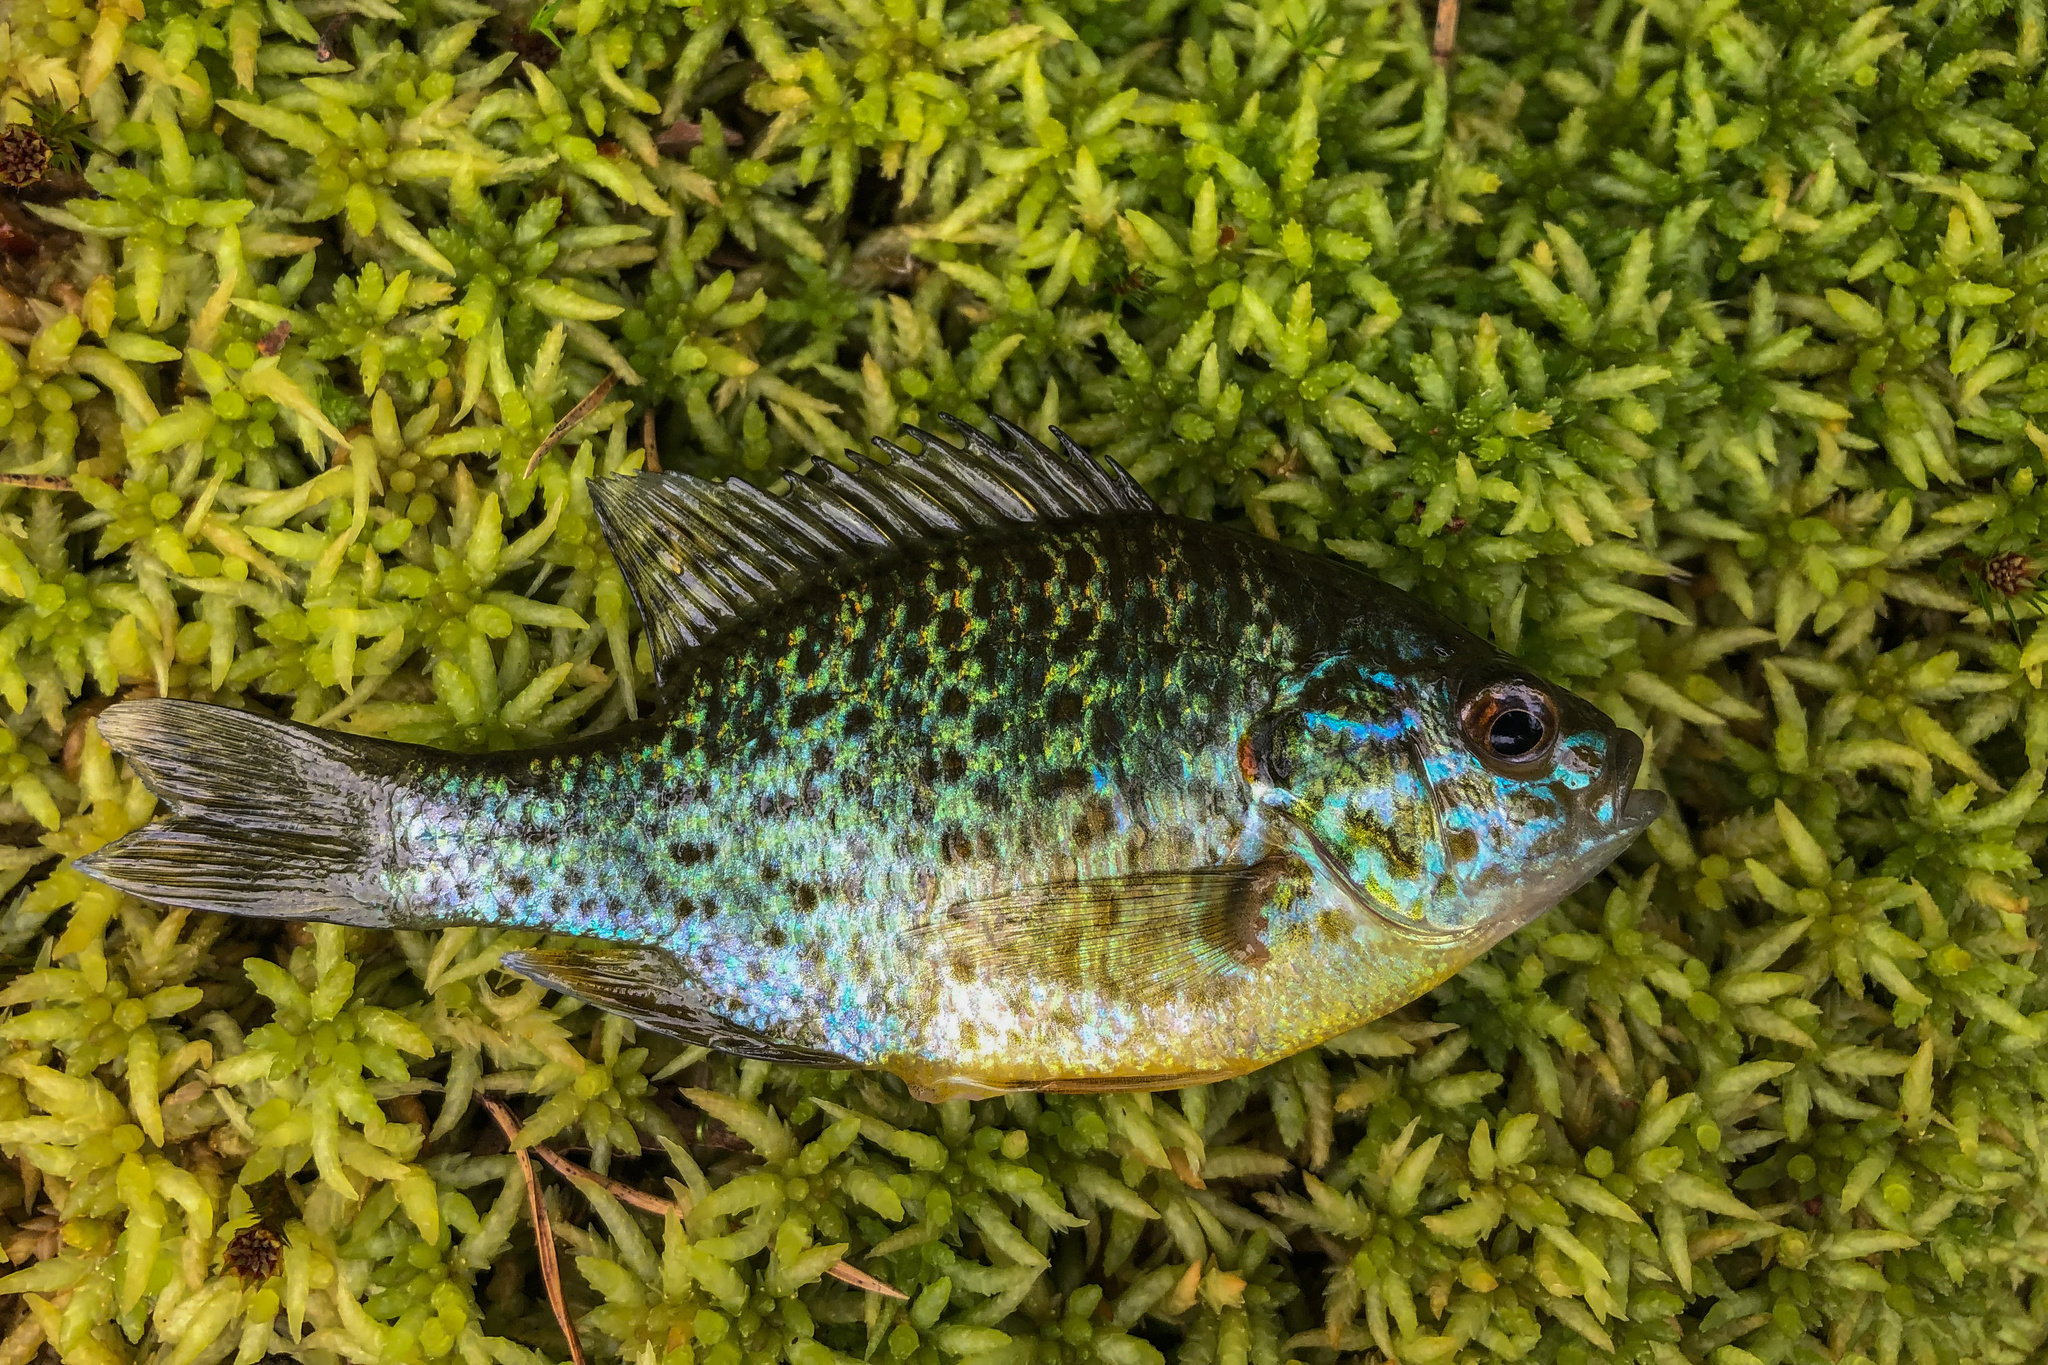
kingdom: Animalia
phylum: Chordata
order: Perciformes
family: Centrarchidae
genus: Lepomis
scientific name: Lepomis gibbosus
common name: Pumpkinseed
